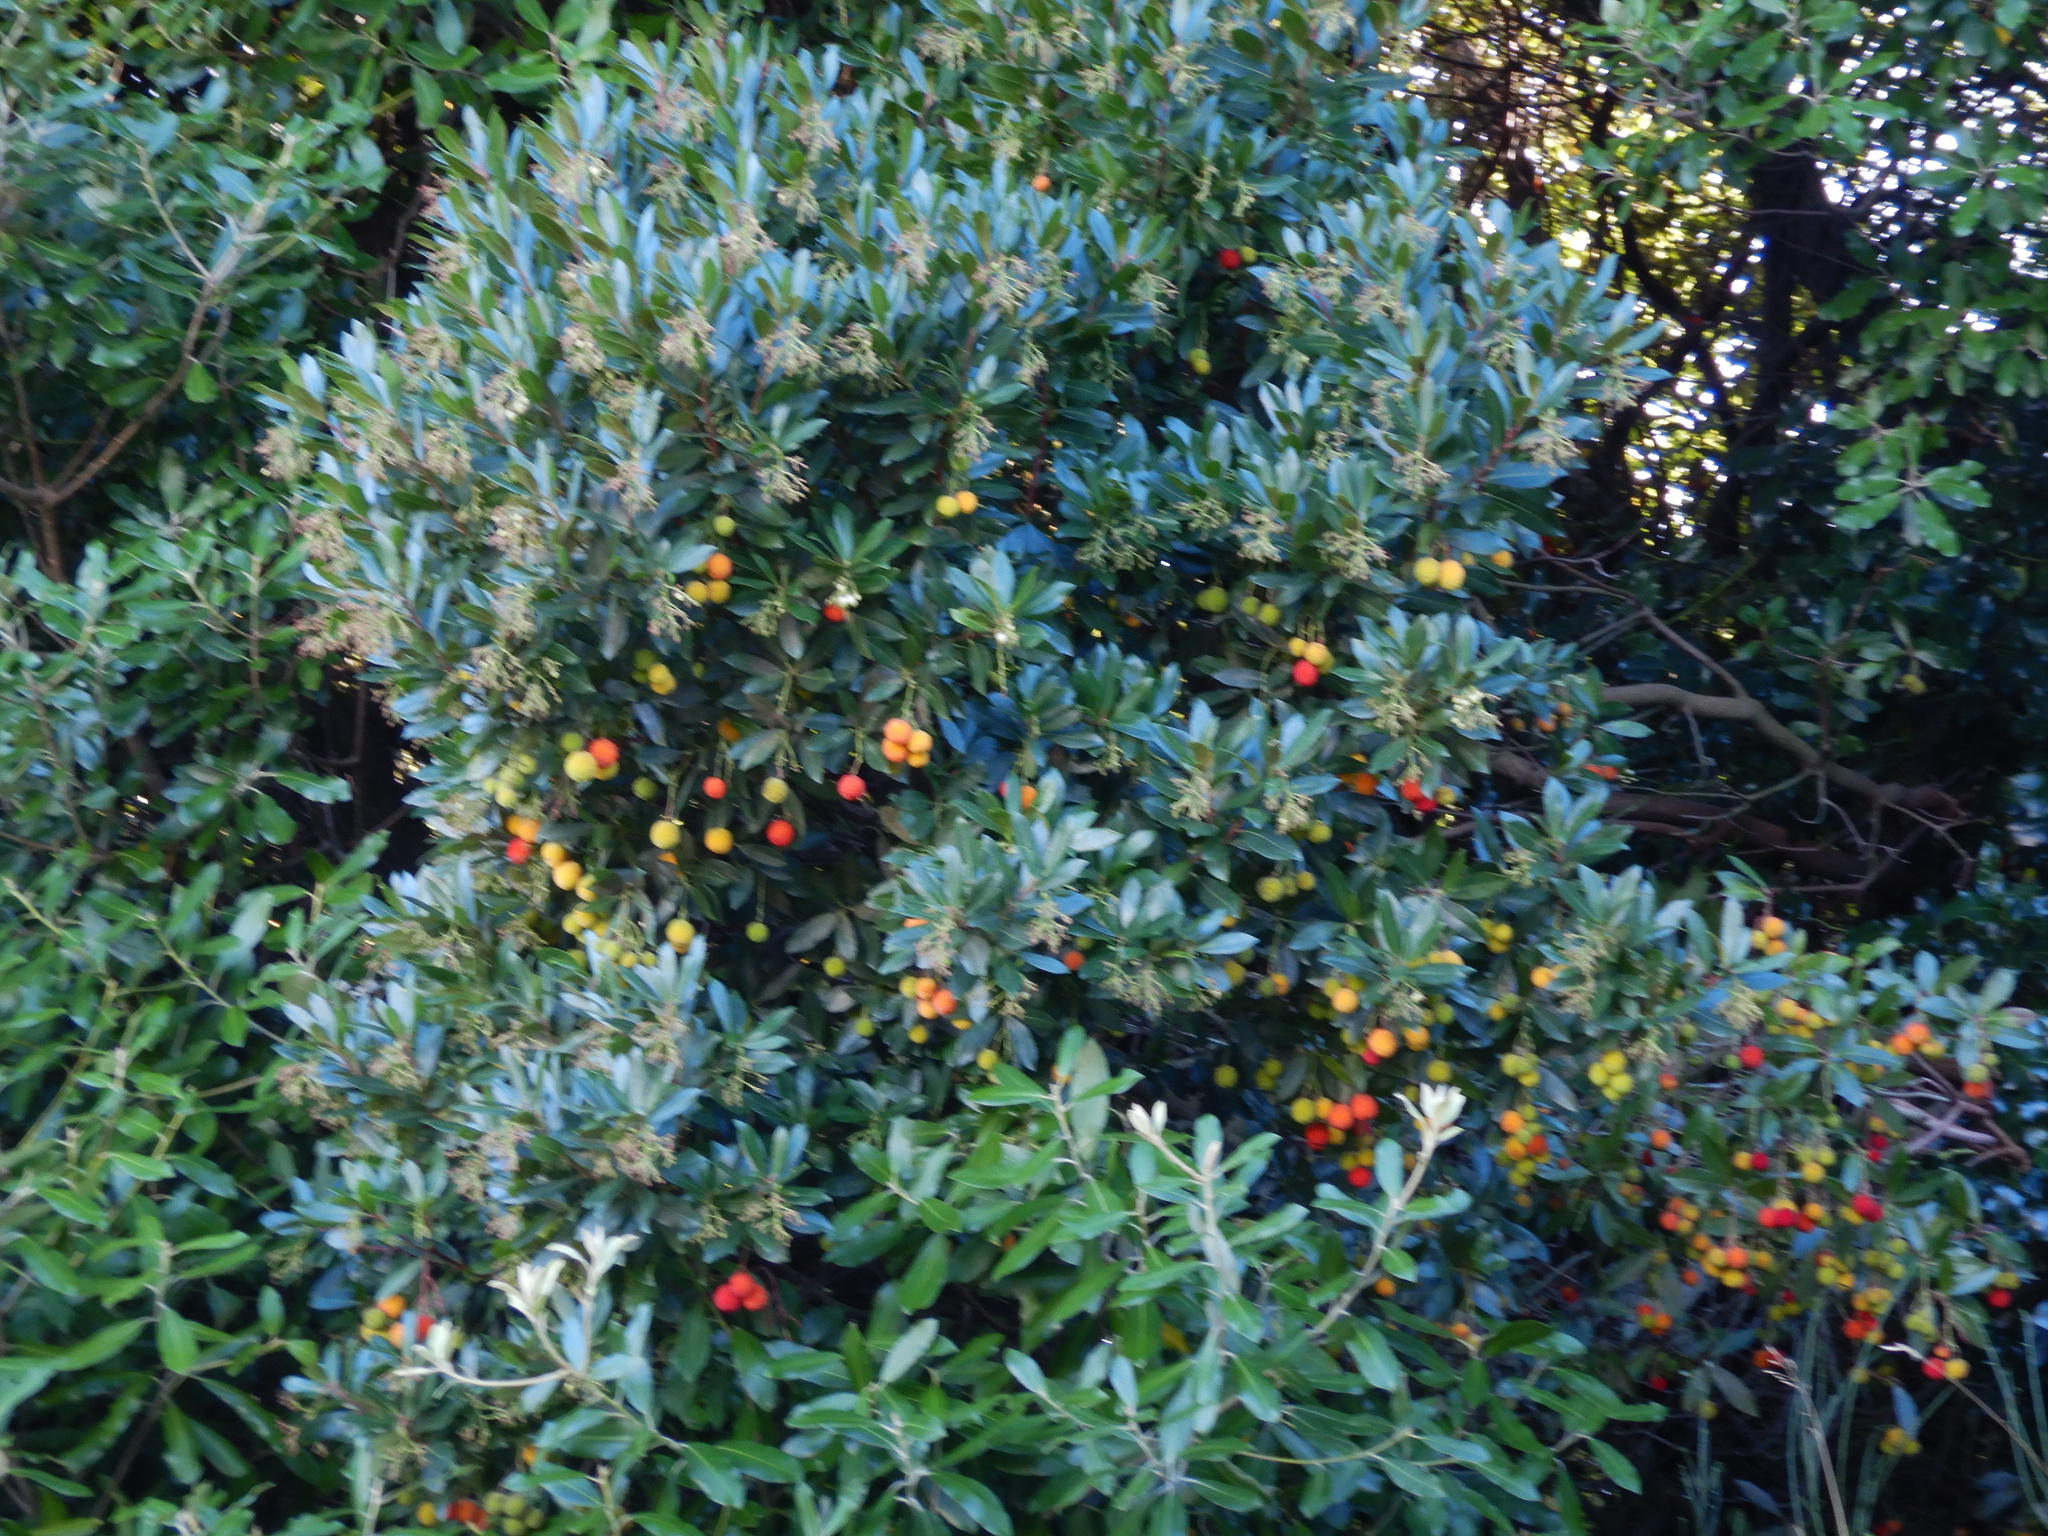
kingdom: Plantae
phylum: Tracheophyta
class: Magnoliopsida
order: Ericales
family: Ericaceae
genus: Arbutus
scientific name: Arbutus unedo
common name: Strawberry-tree
